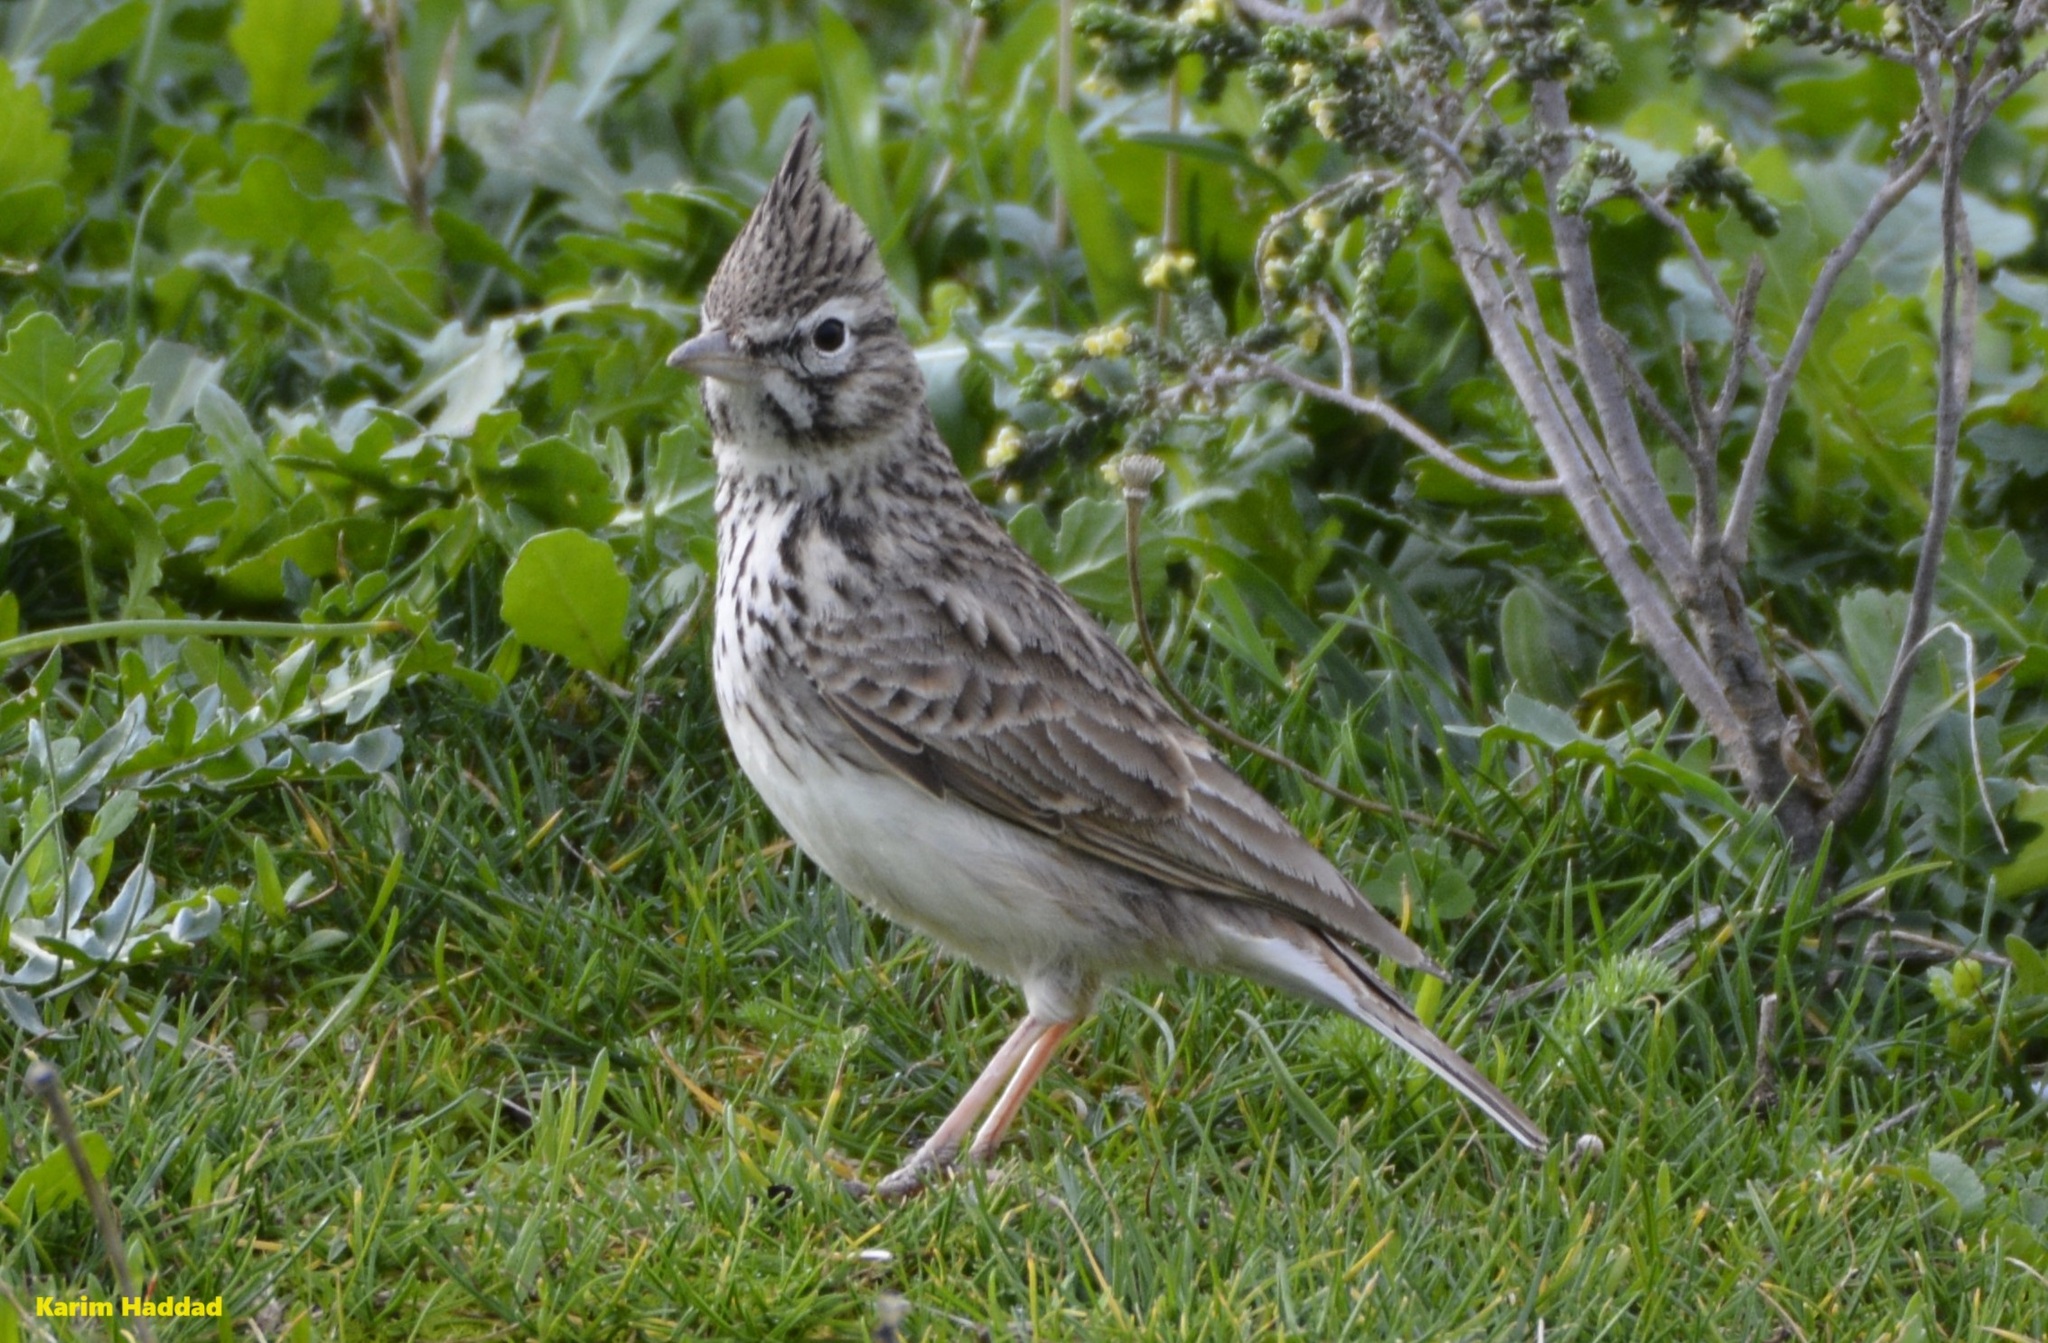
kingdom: Animalia
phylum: Chordata
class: Aves
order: Passeriformes
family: Alaudidae
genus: Galerida
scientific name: Galerida theklae
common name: Thekla lark
